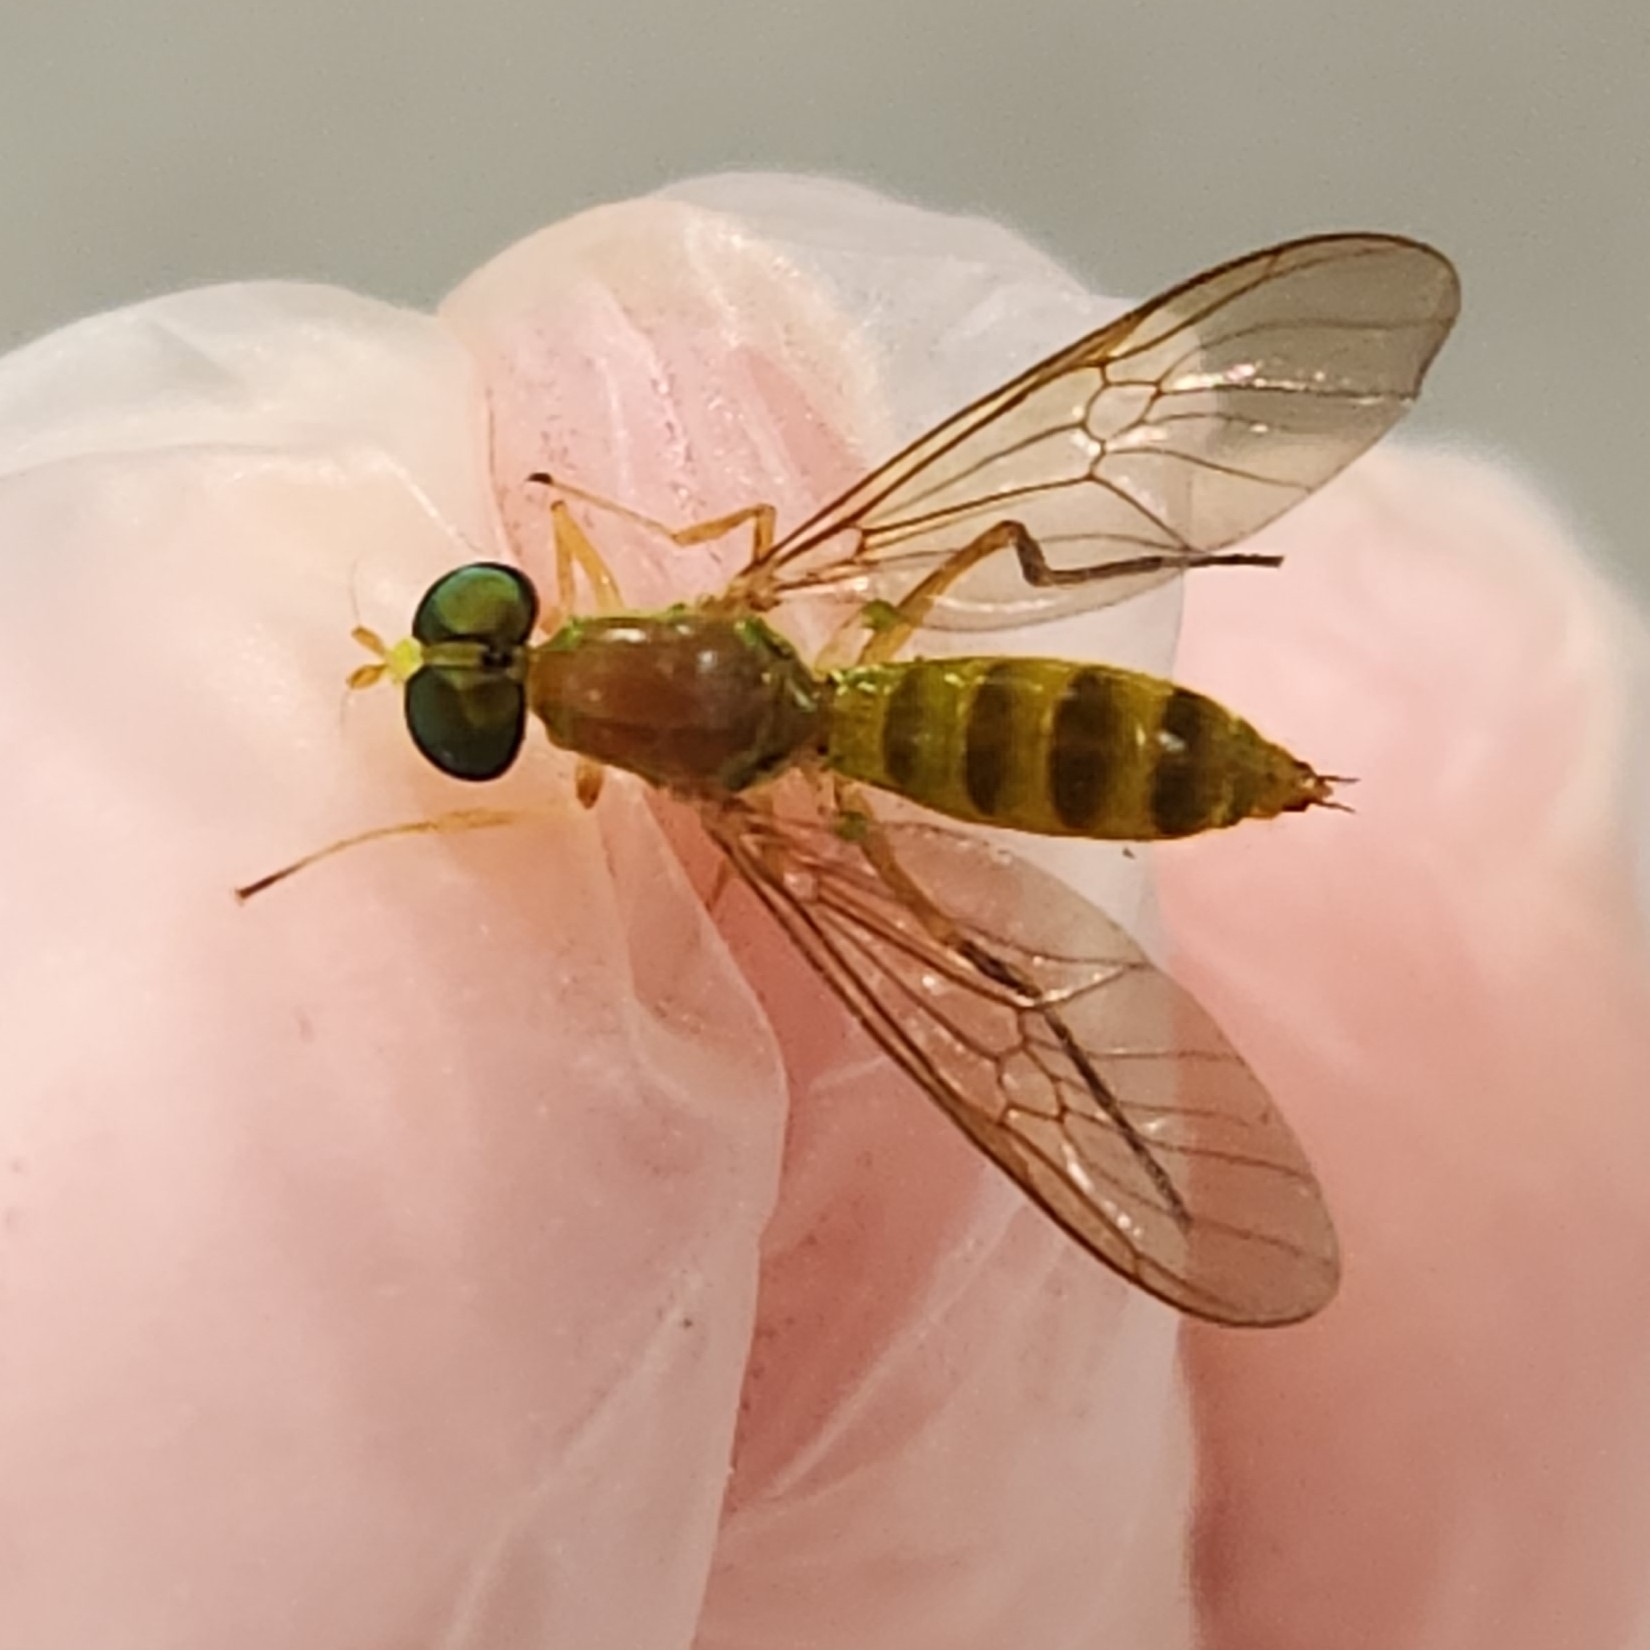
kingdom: Animalia
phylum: Arthropoda
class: Insecta
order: Diptera
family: Stratiomyidae
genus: Ptecticus
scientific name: Ptecticus trivittatus
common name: Compost fly
